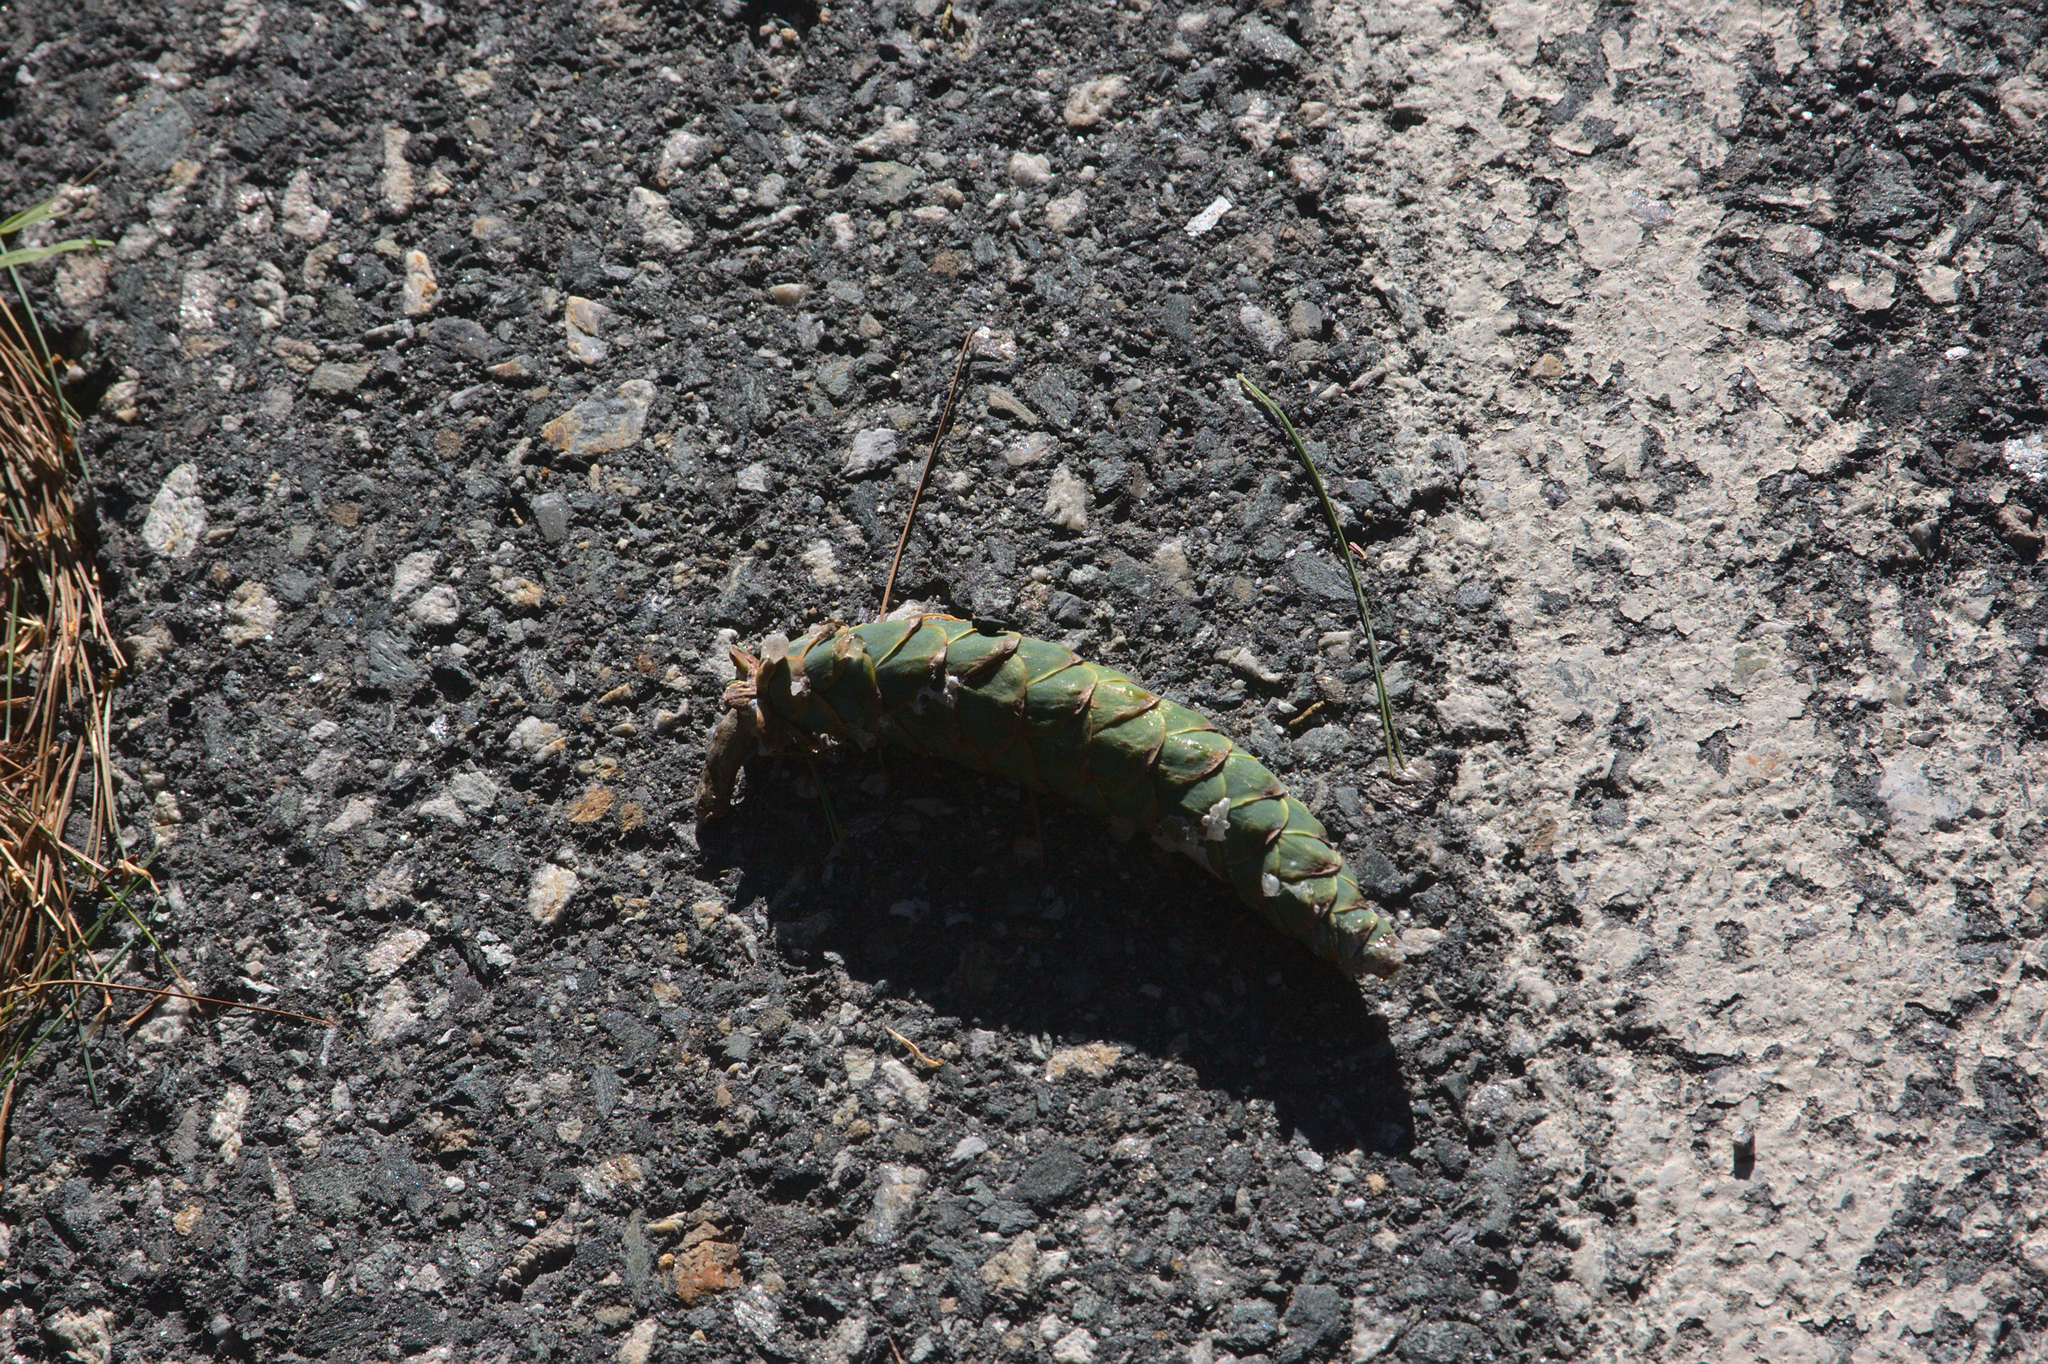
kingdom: Plantae
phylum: Tracheophyta
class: Pinopsida
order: Pinales
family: Pinaceae
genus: Pinus
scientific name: Pinus strobus
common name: Weymouth pine
